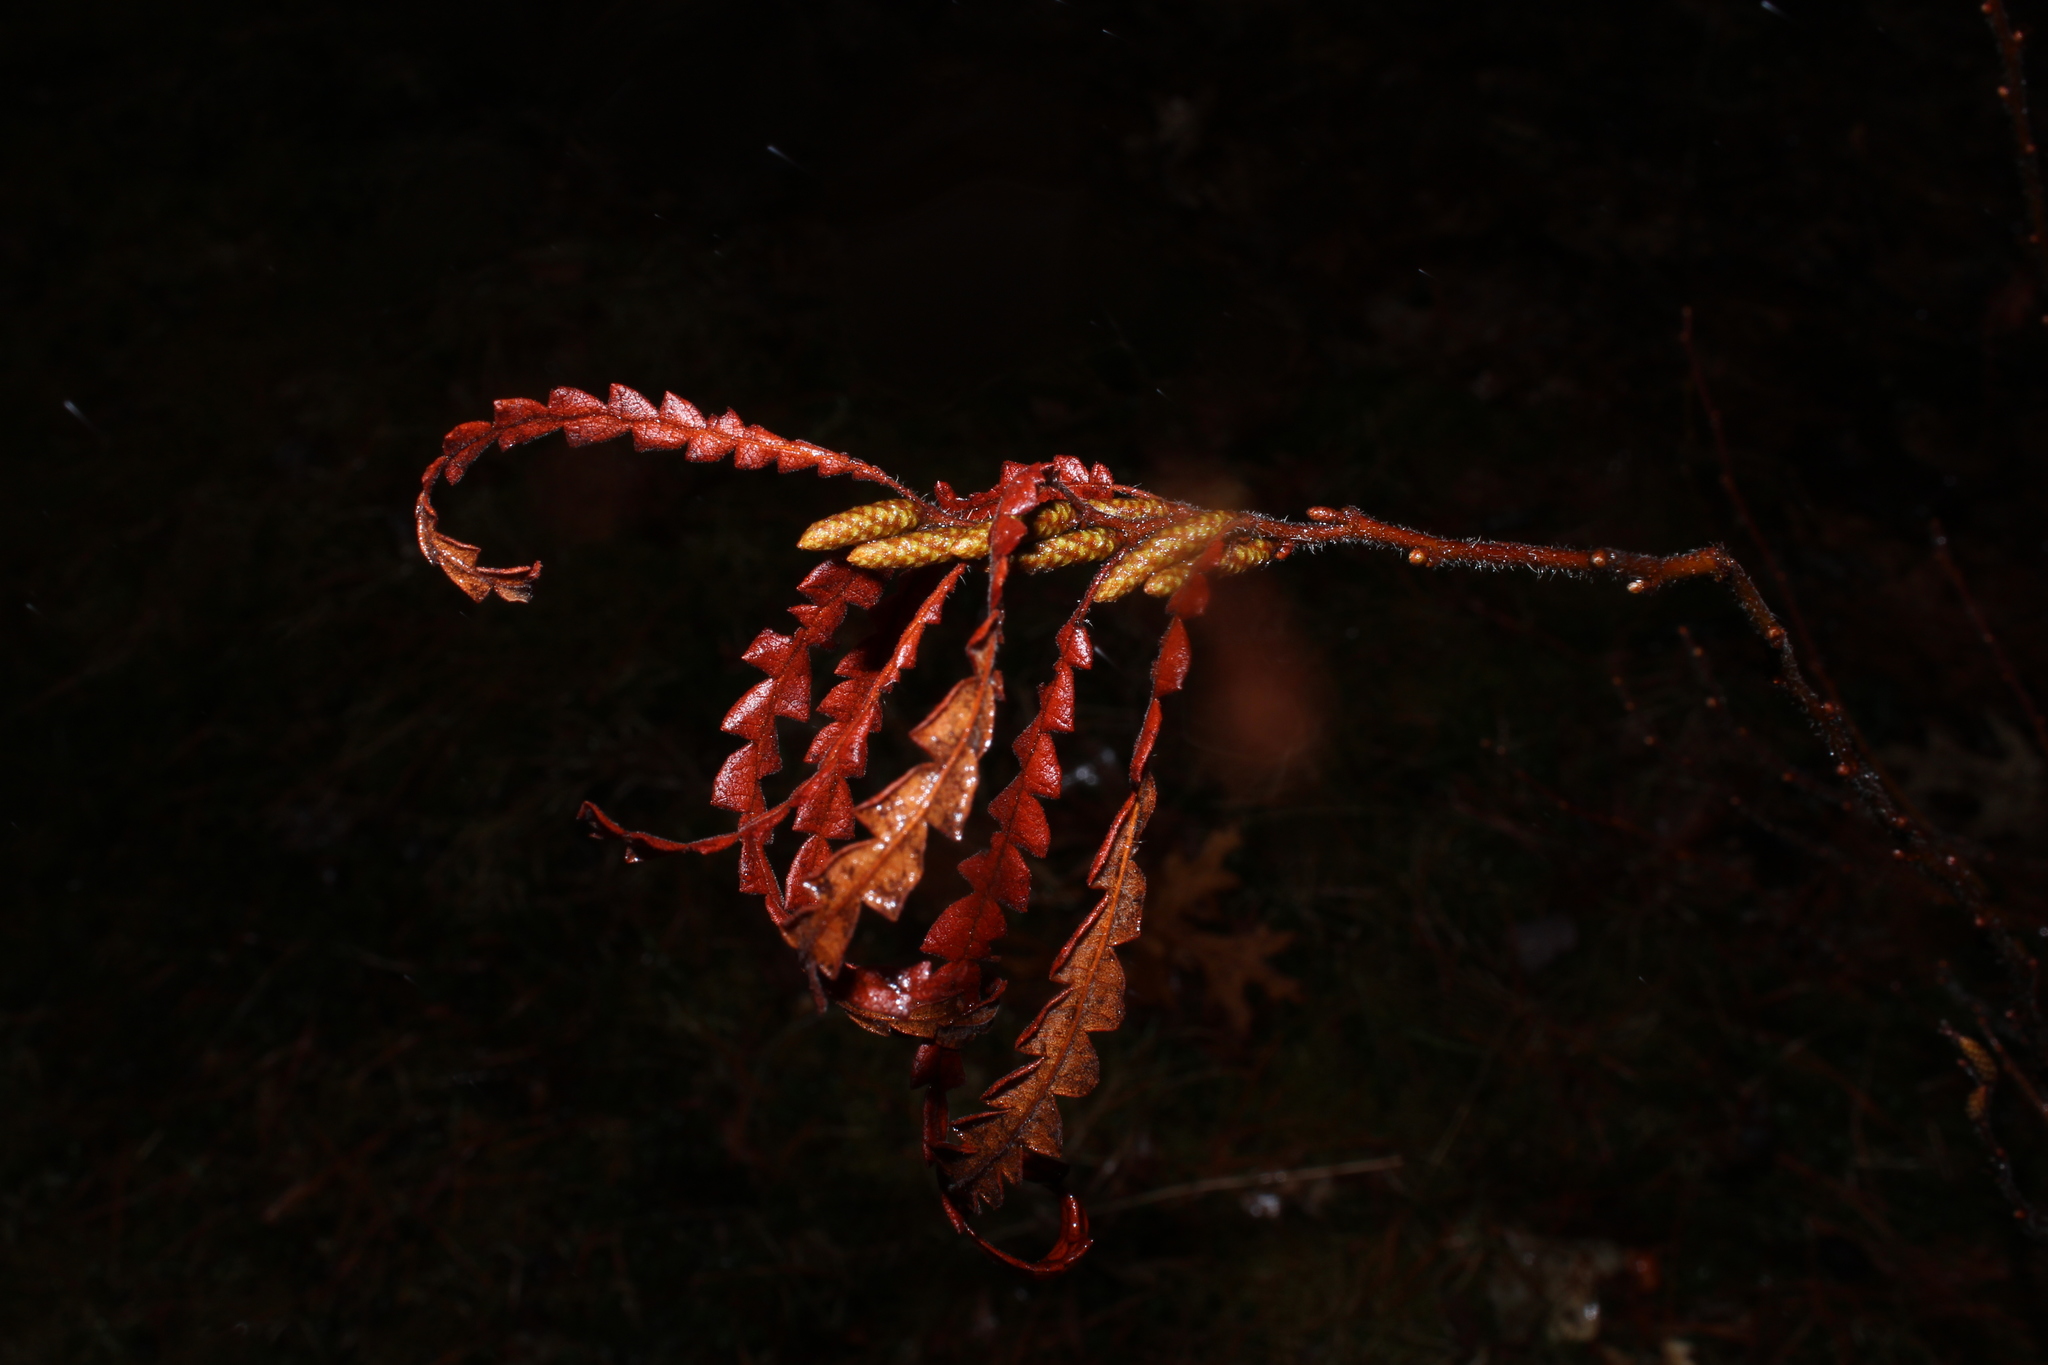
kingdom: Plantae
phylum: Tracheophyta
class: Magnoliopsida
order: Fagales
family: Myricaceae
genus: Comptonia
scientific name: Comptonia peregrina
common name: Sweet-fern
